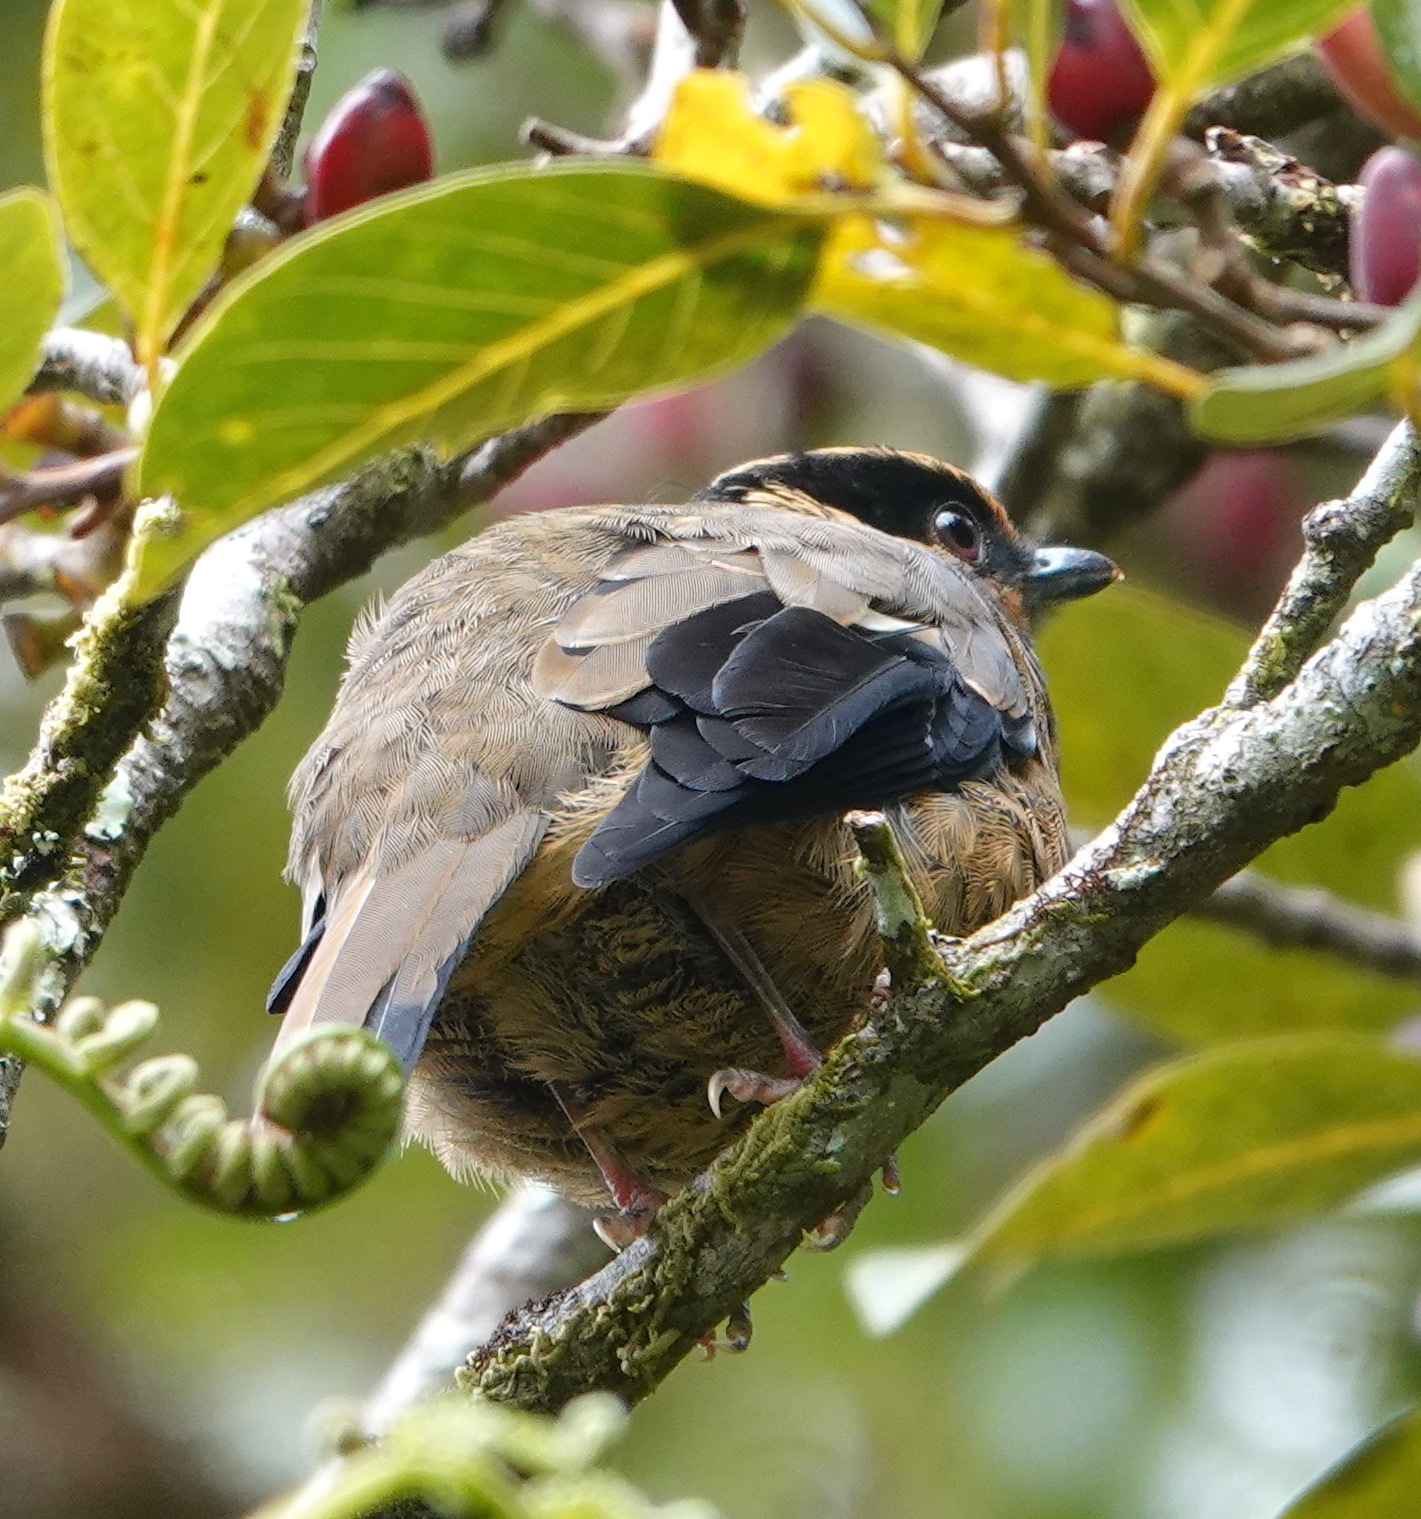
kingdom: Animalia
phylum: Chordata
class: Aves
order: Passeriformes
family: Turdidae
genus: Chlamydochaera
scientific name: Chlamydochaera jefferyi
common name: Fruithunter
